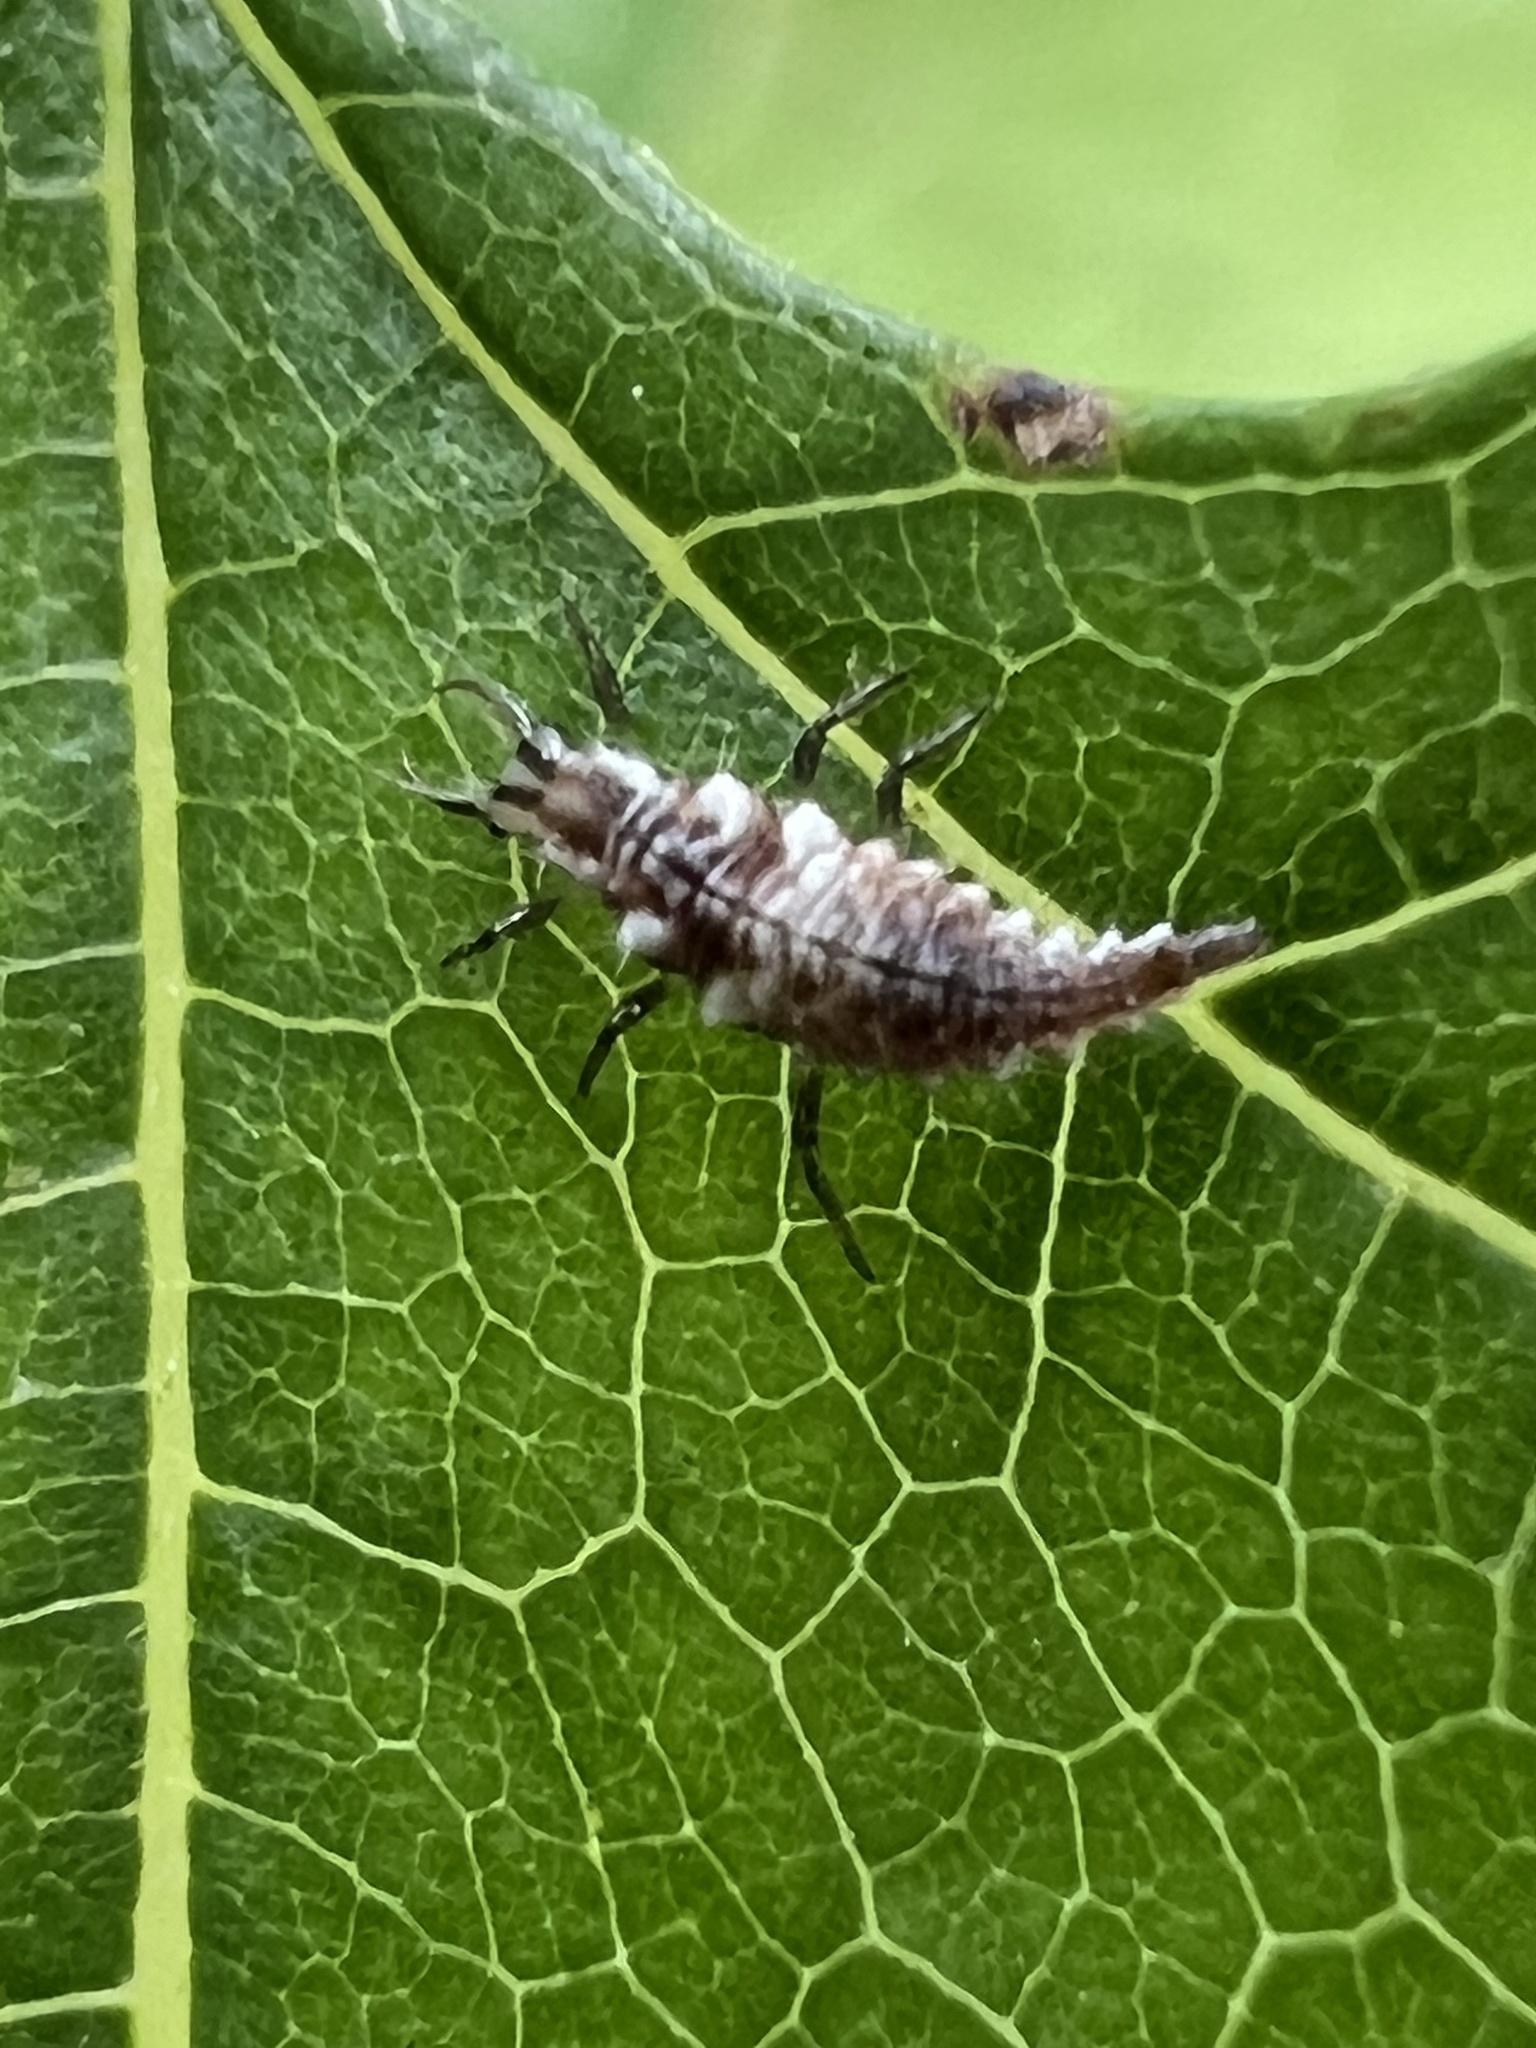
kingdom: Animalia
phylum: Arthropoda
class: Insecta
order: Neuroptera
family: Chrysopidae
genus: Chrysoperla
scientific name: Chrysoperla rufilabris
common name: Red-lipped green lacewing
